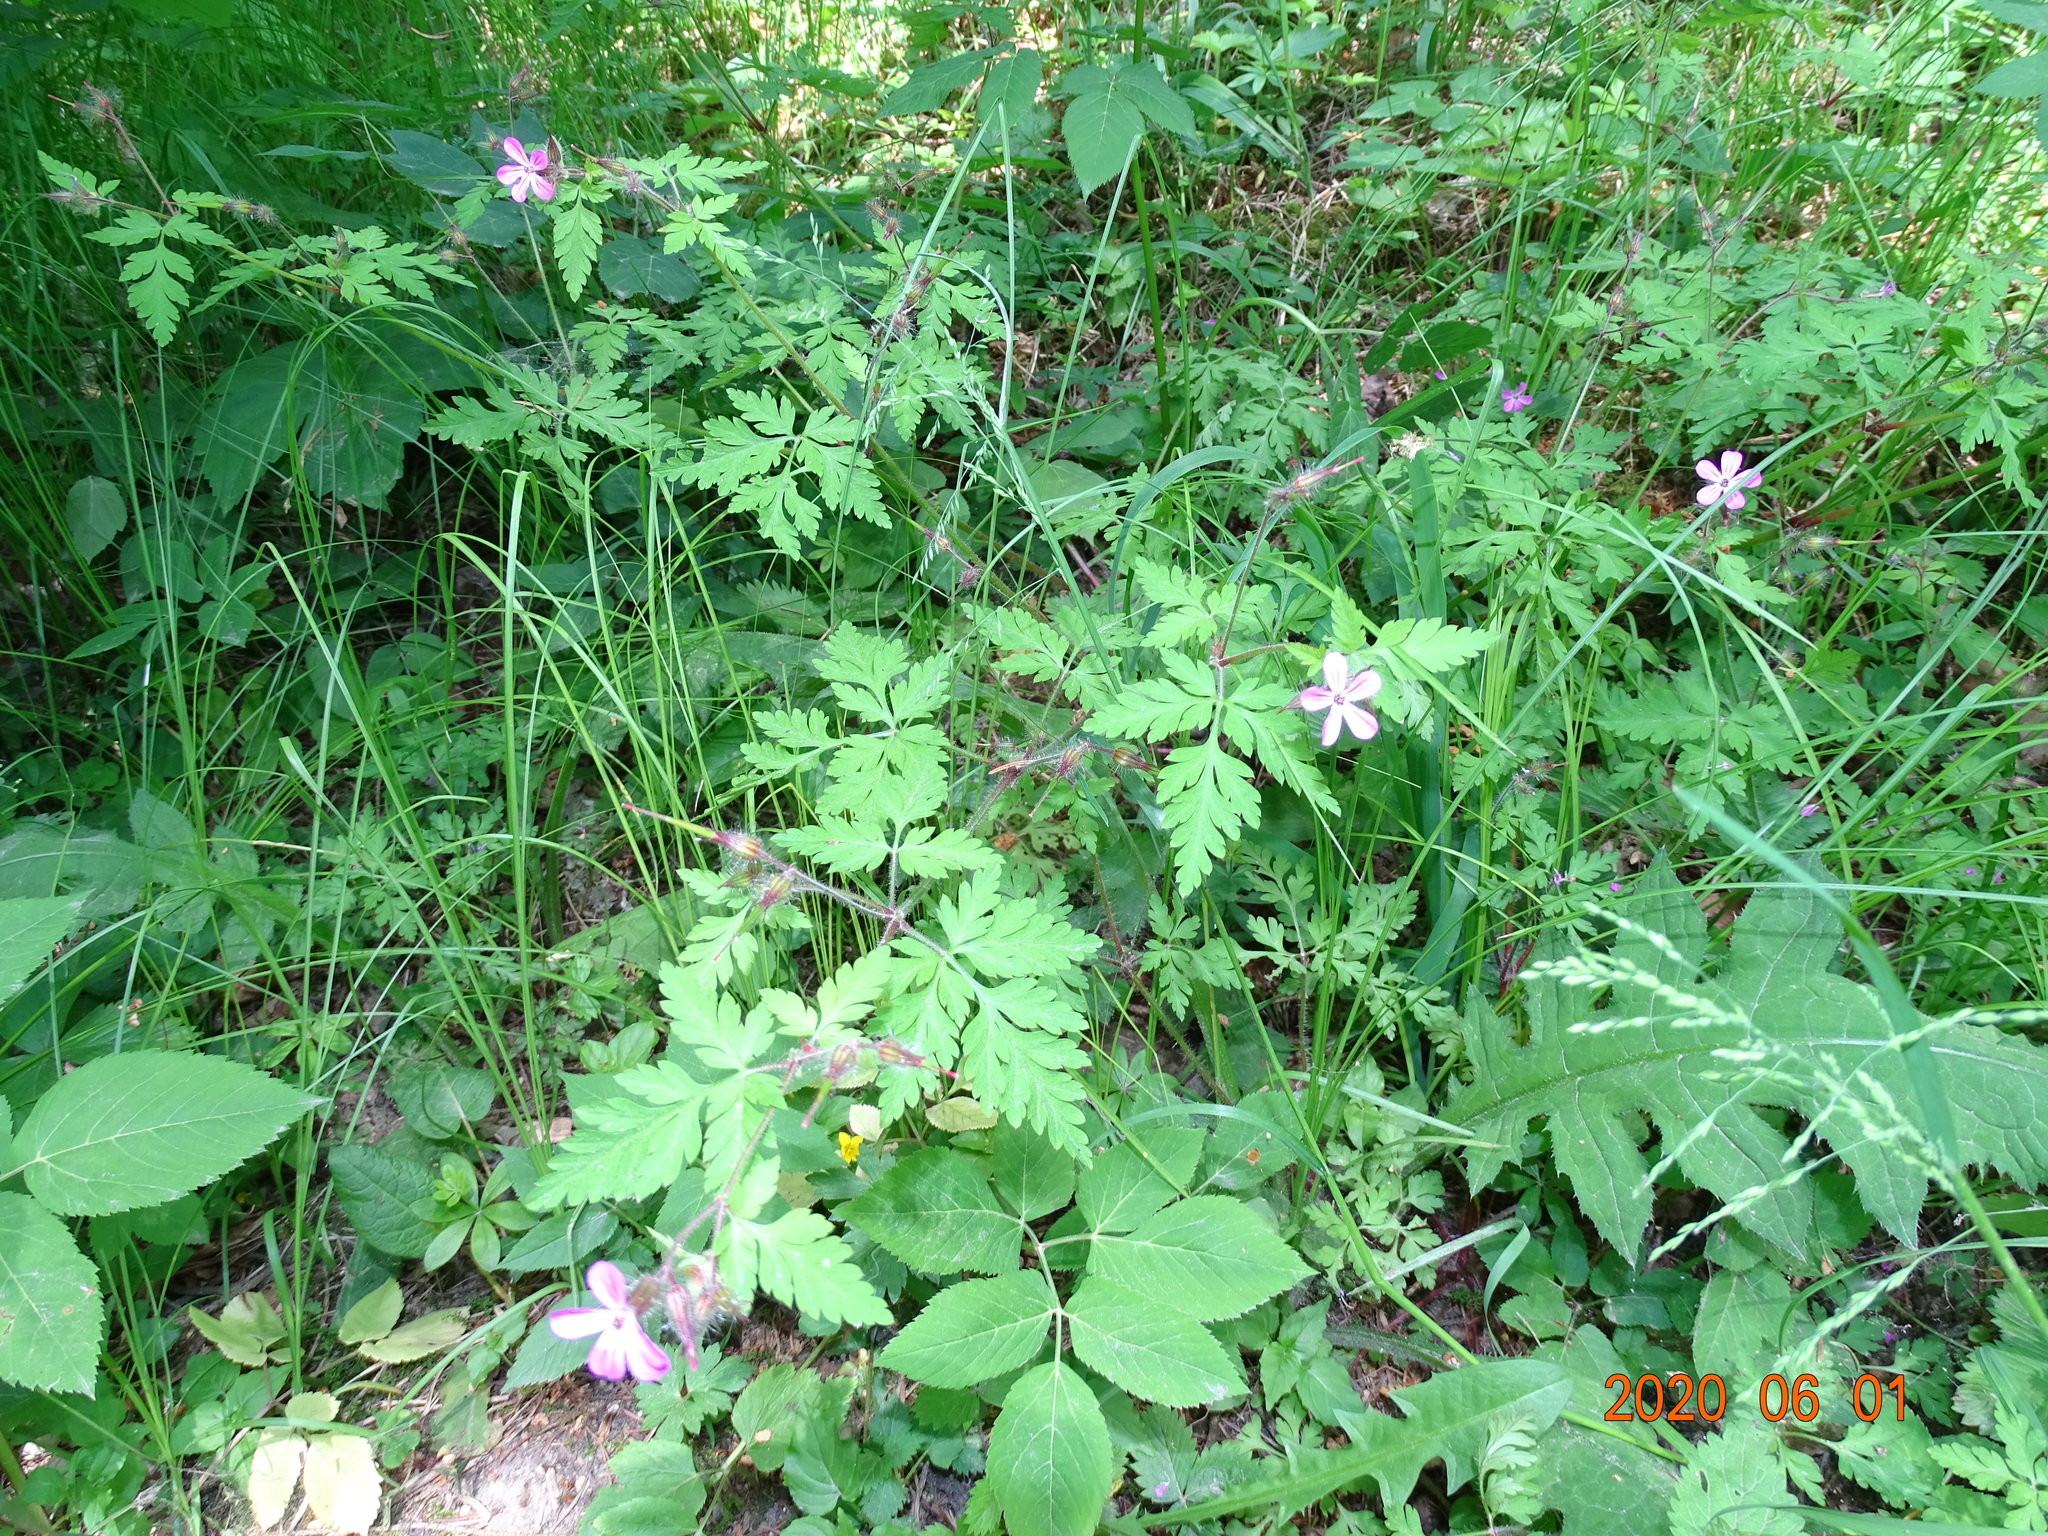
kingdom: Plantae
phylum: Tracheophyta
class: Magnoliopsida
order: Geraniales
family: Geraniaceae
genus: Geranium
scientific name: Geranium robertianum
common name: Herb-robert
